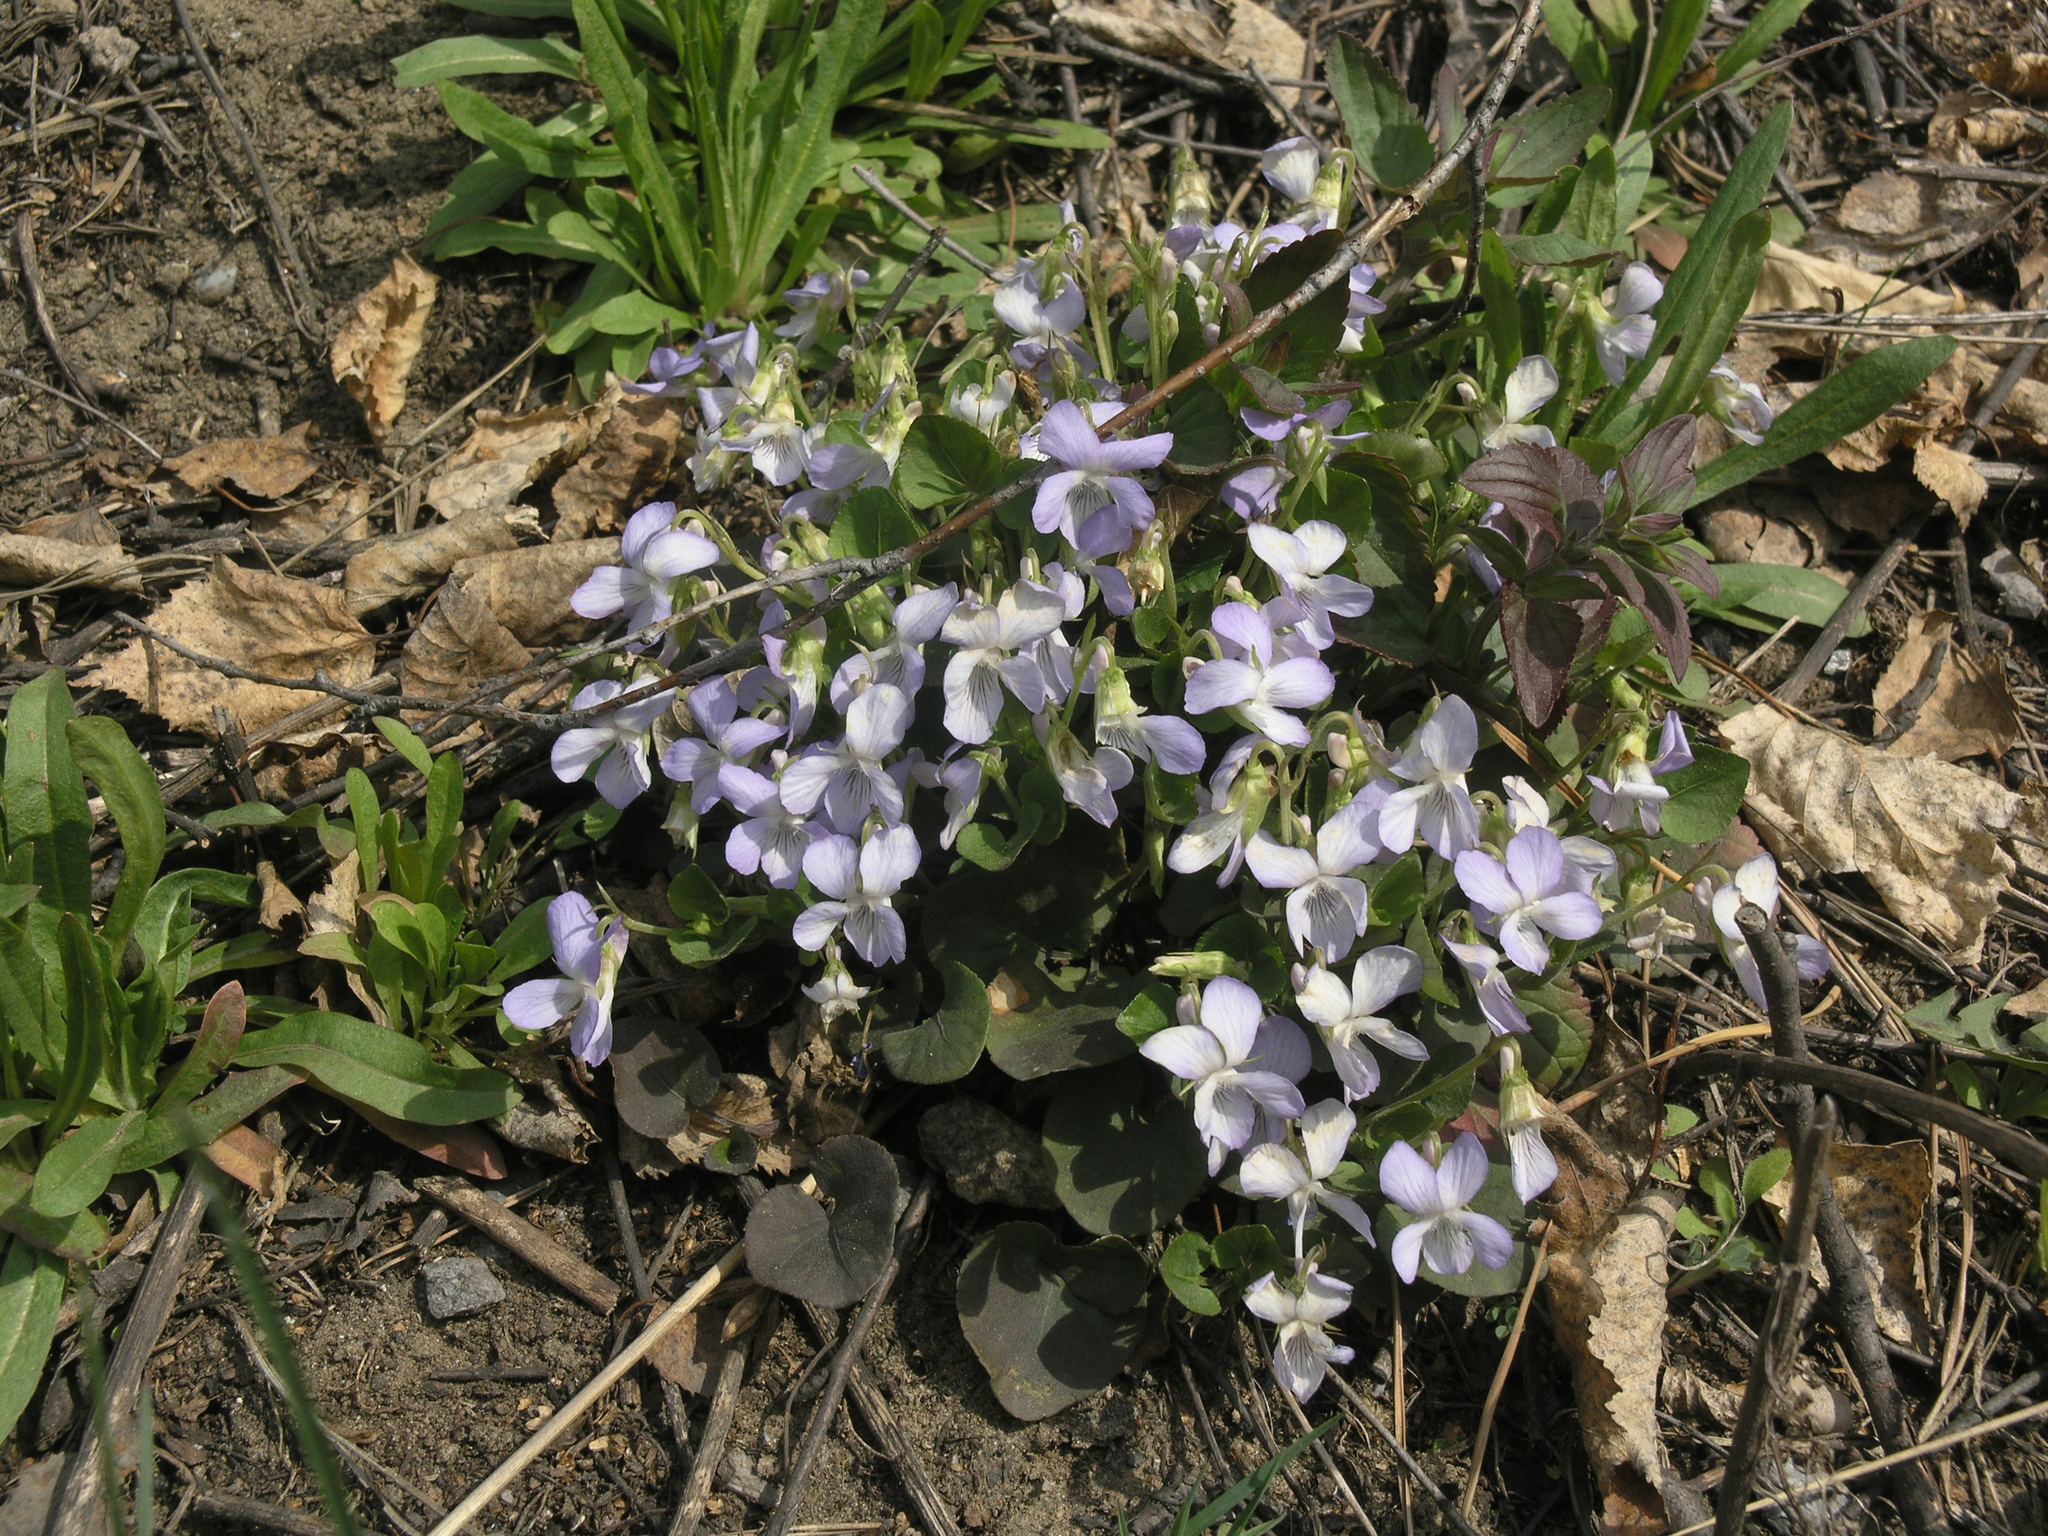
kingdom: Plantae
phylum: Tracheophyta
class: Magnoliopsida
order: Malpighiales
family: Violaceae
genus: Viola
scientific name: Viola rupestris
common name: Teesdale violet
